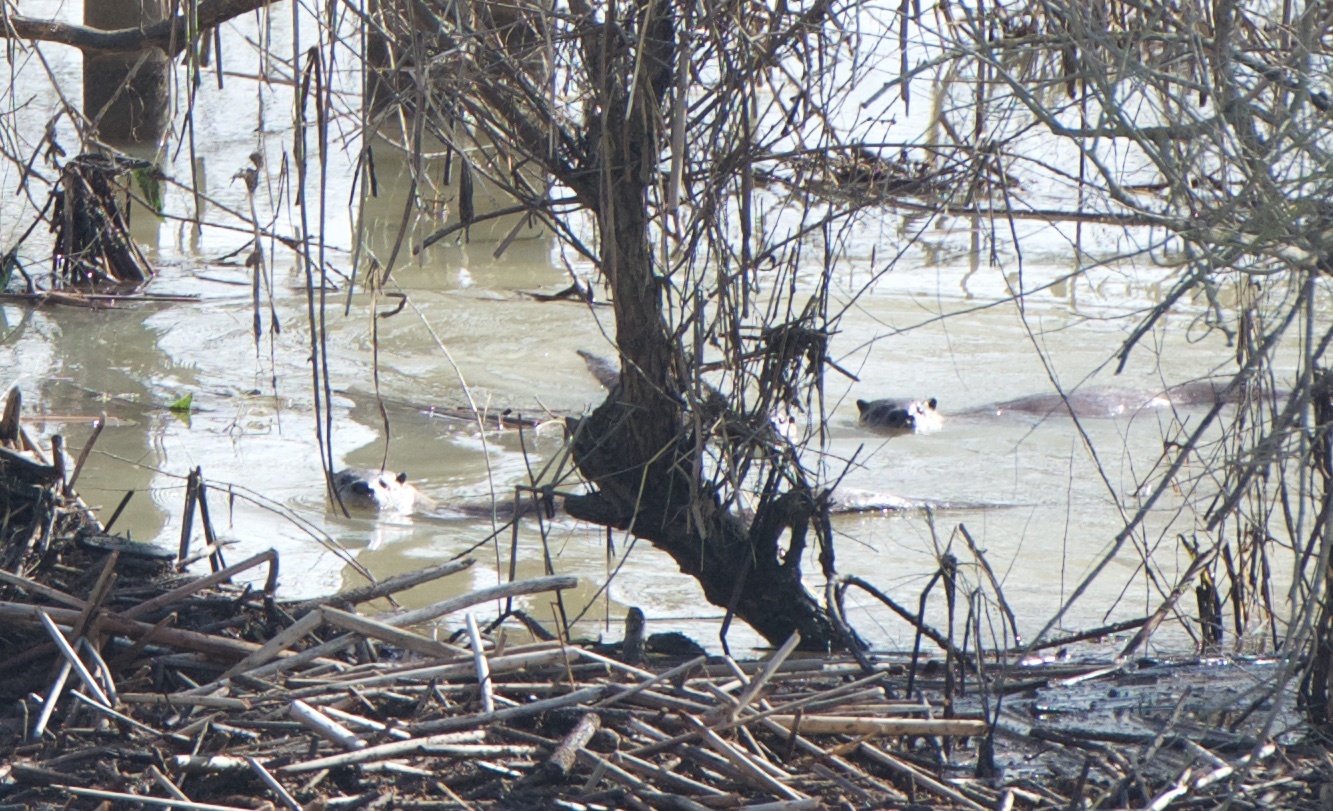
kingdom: Animalia
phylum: Chordata
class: Mammalia
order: Carnivora
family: Mustelidae
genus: Lontra
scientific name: Lontra canadensis
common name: North american river otter
